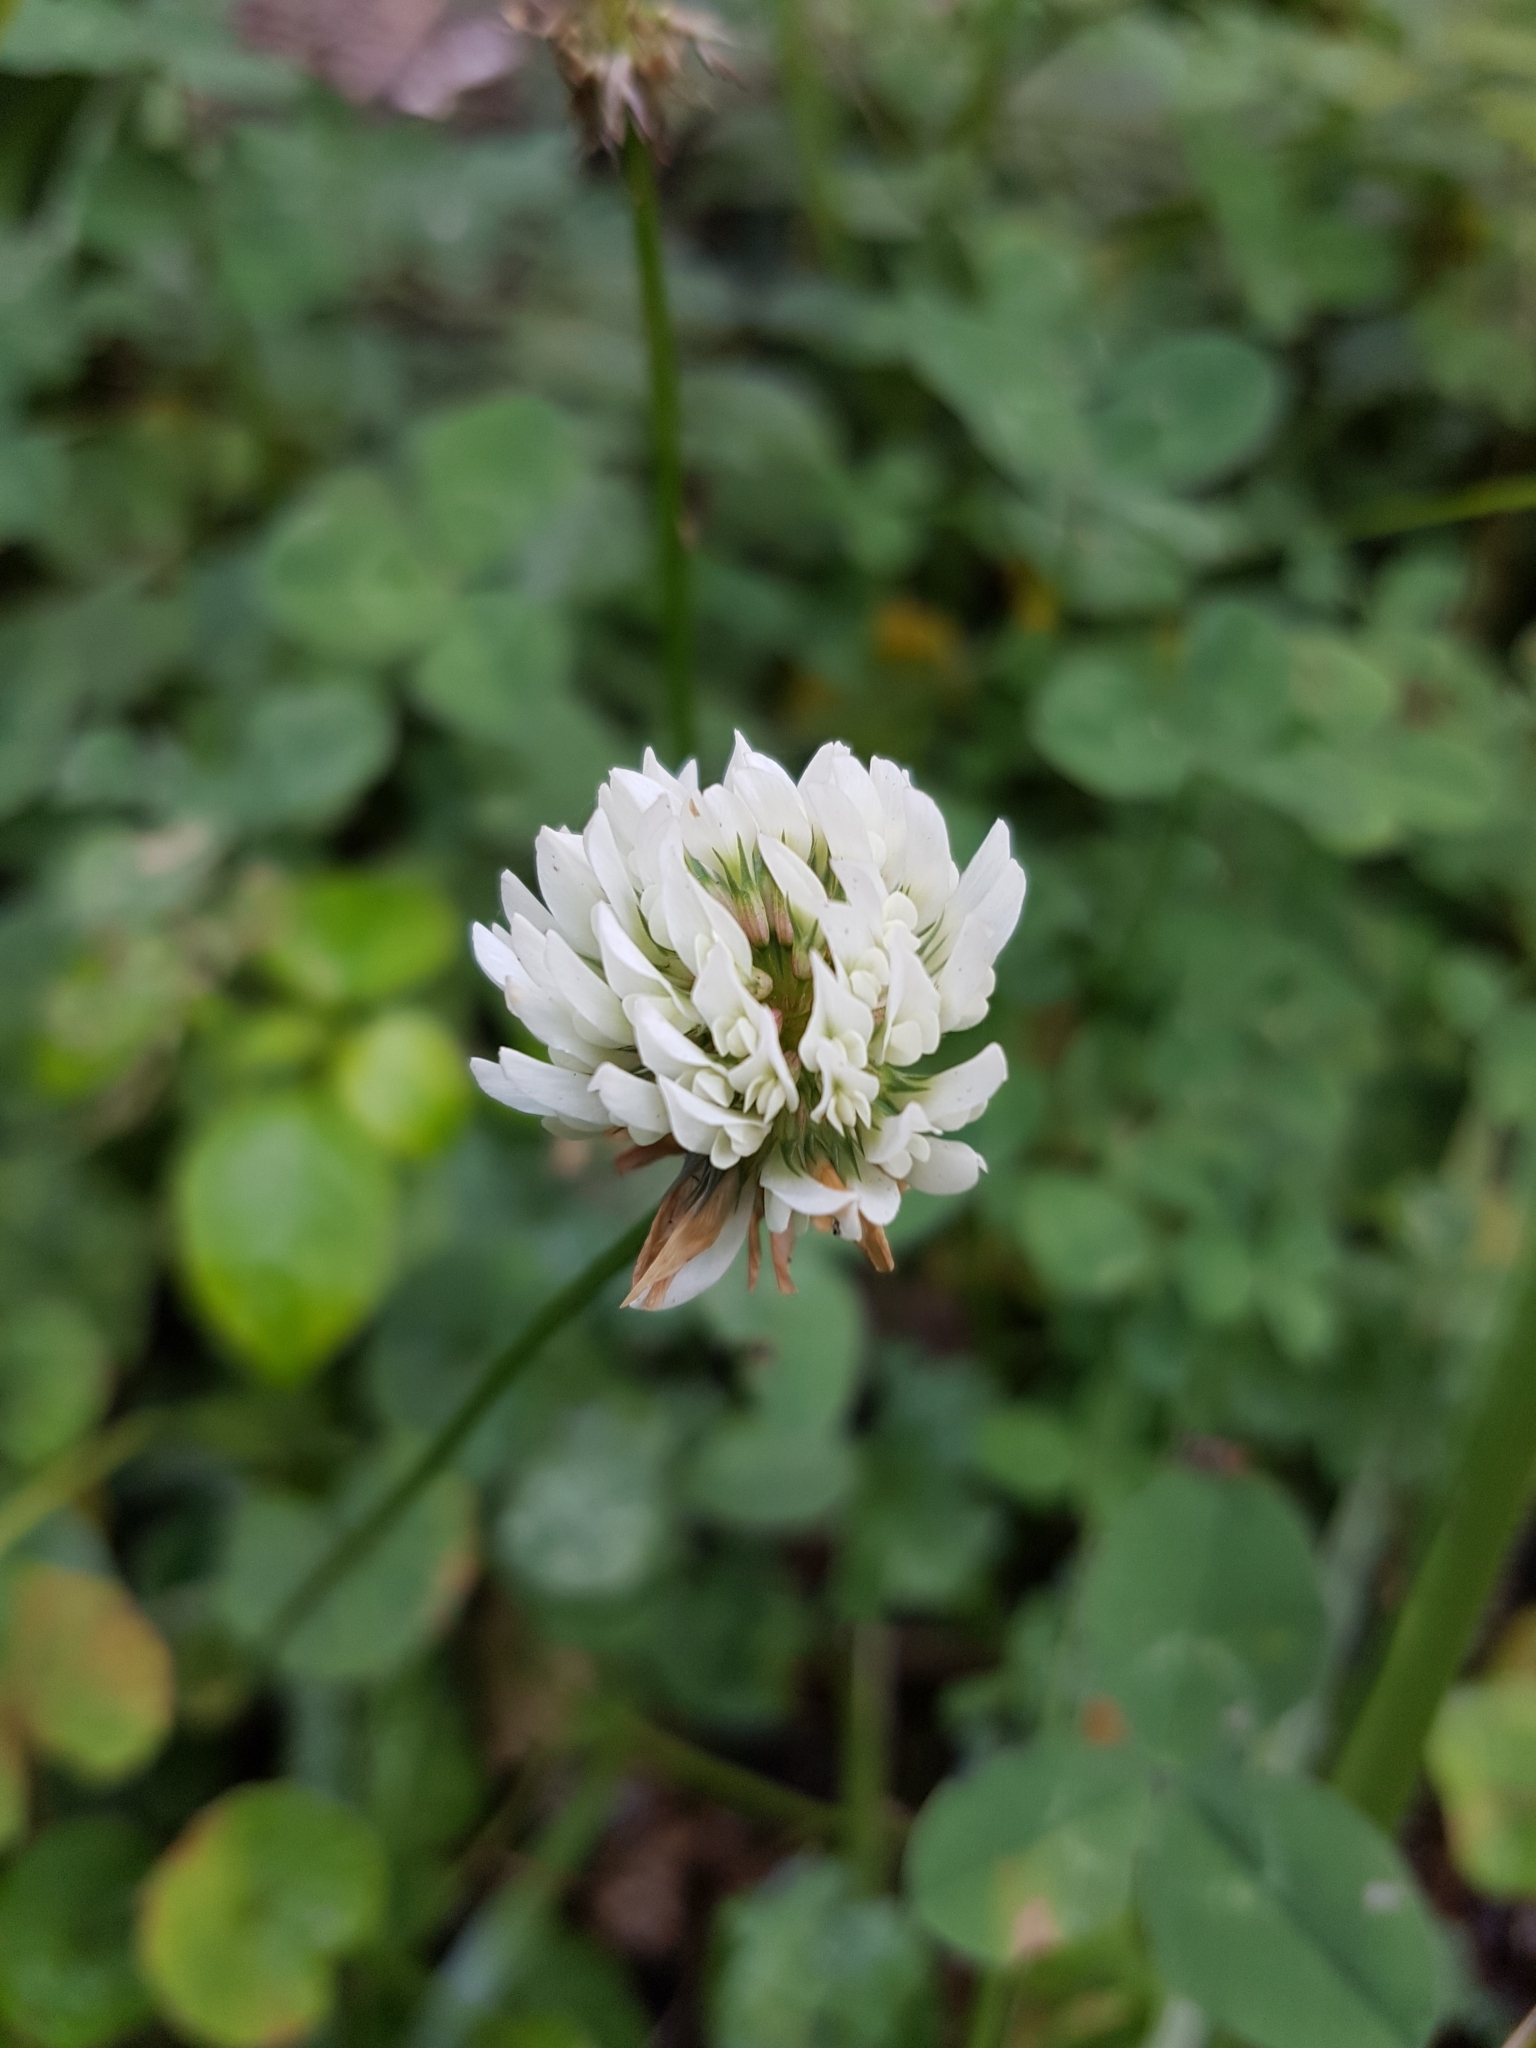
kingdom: Plantae
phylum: Tracheophyta
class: Magnoliopsida
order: Fabales
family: Fabaceae
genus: Trifolium
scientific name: Trifolium repens
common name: White clover
